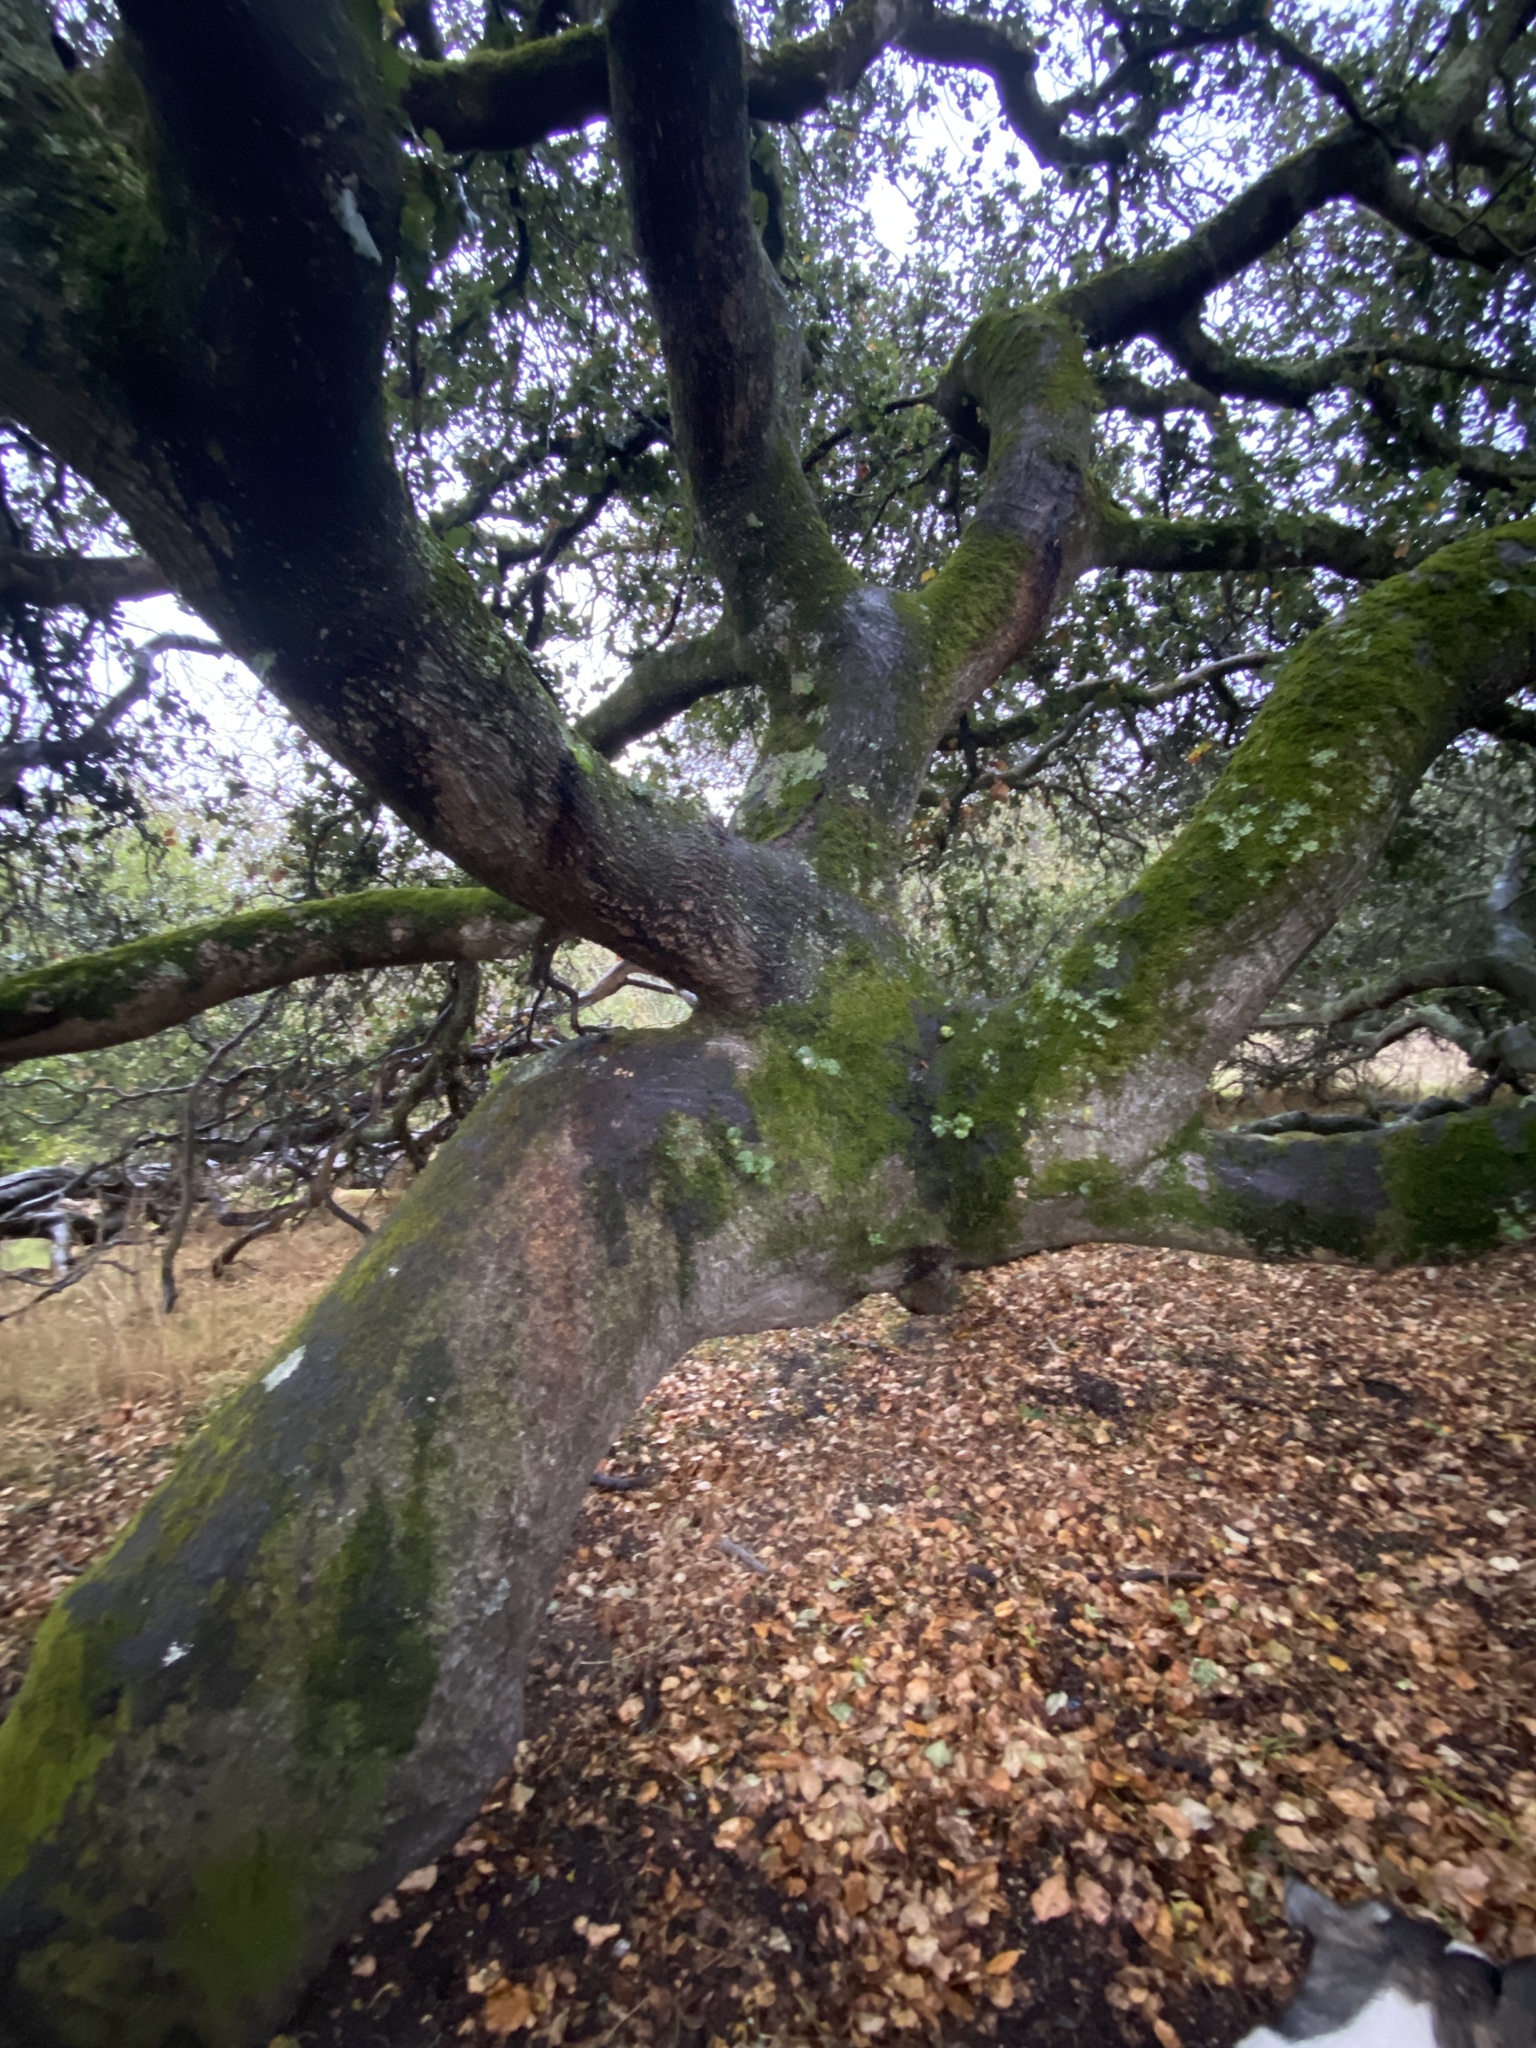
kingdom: Plantae
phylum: Tracheophyta
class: Magnoliopsida
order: Fagales
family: Fagaceae
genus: Quercus
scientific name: Quercus agrifolia
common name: California live oak
